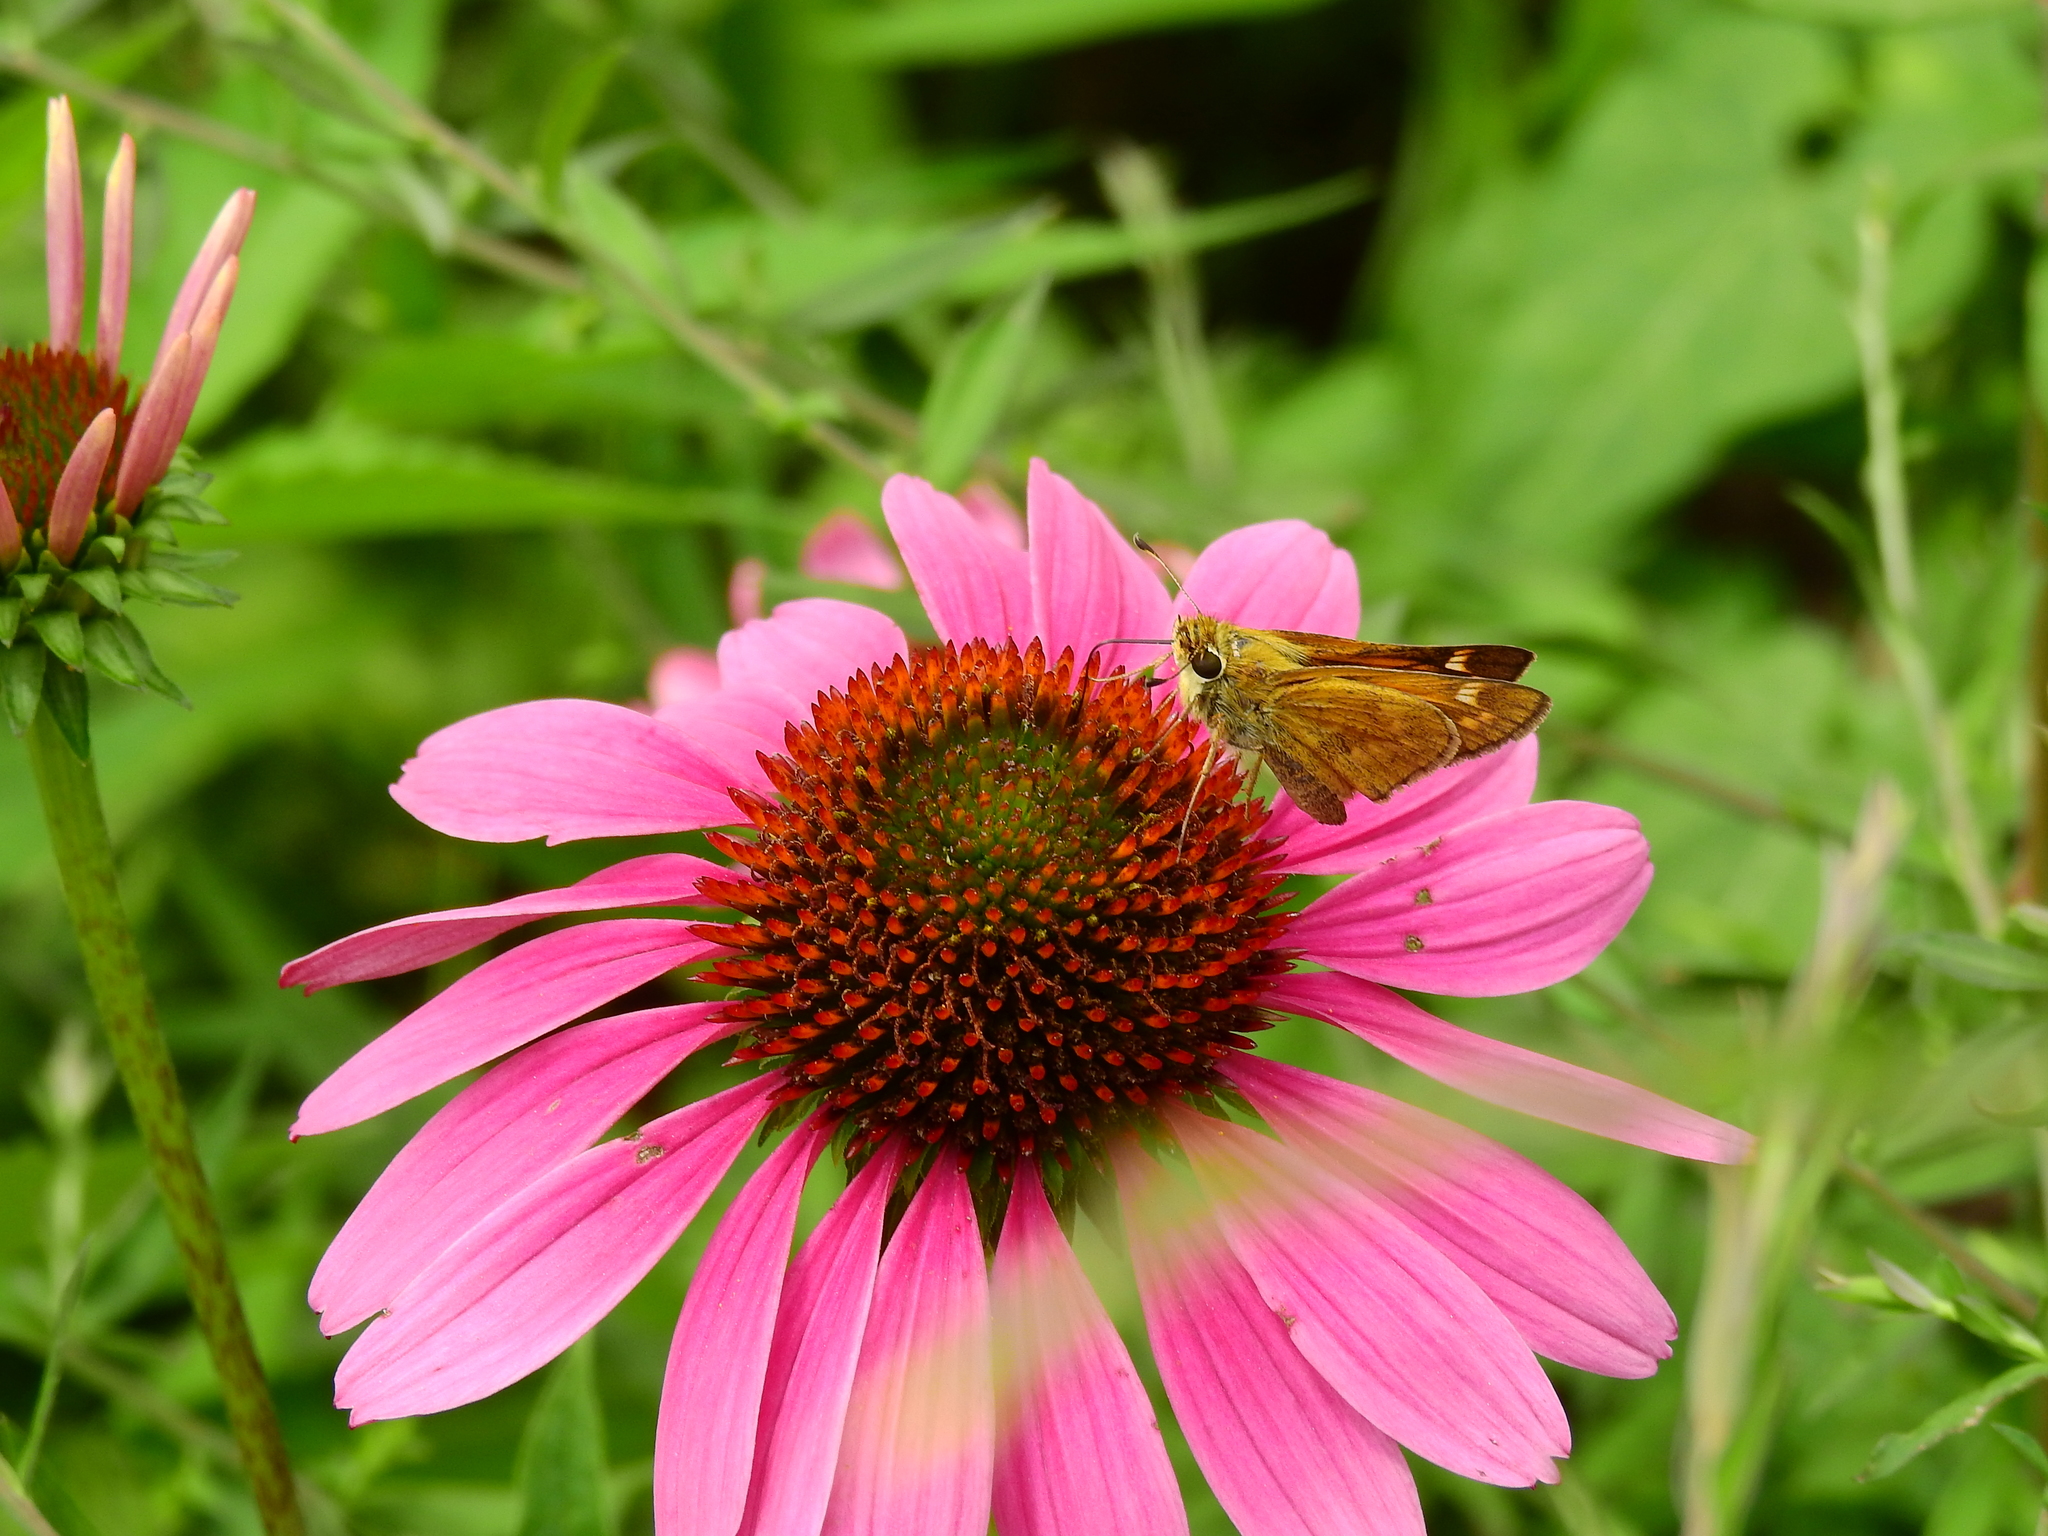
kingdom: Animalia
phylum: Arthropoda
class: Insecta
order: Lepidoptera
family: Hesperiidae
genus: Atalopedes
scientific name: Atalopedes
